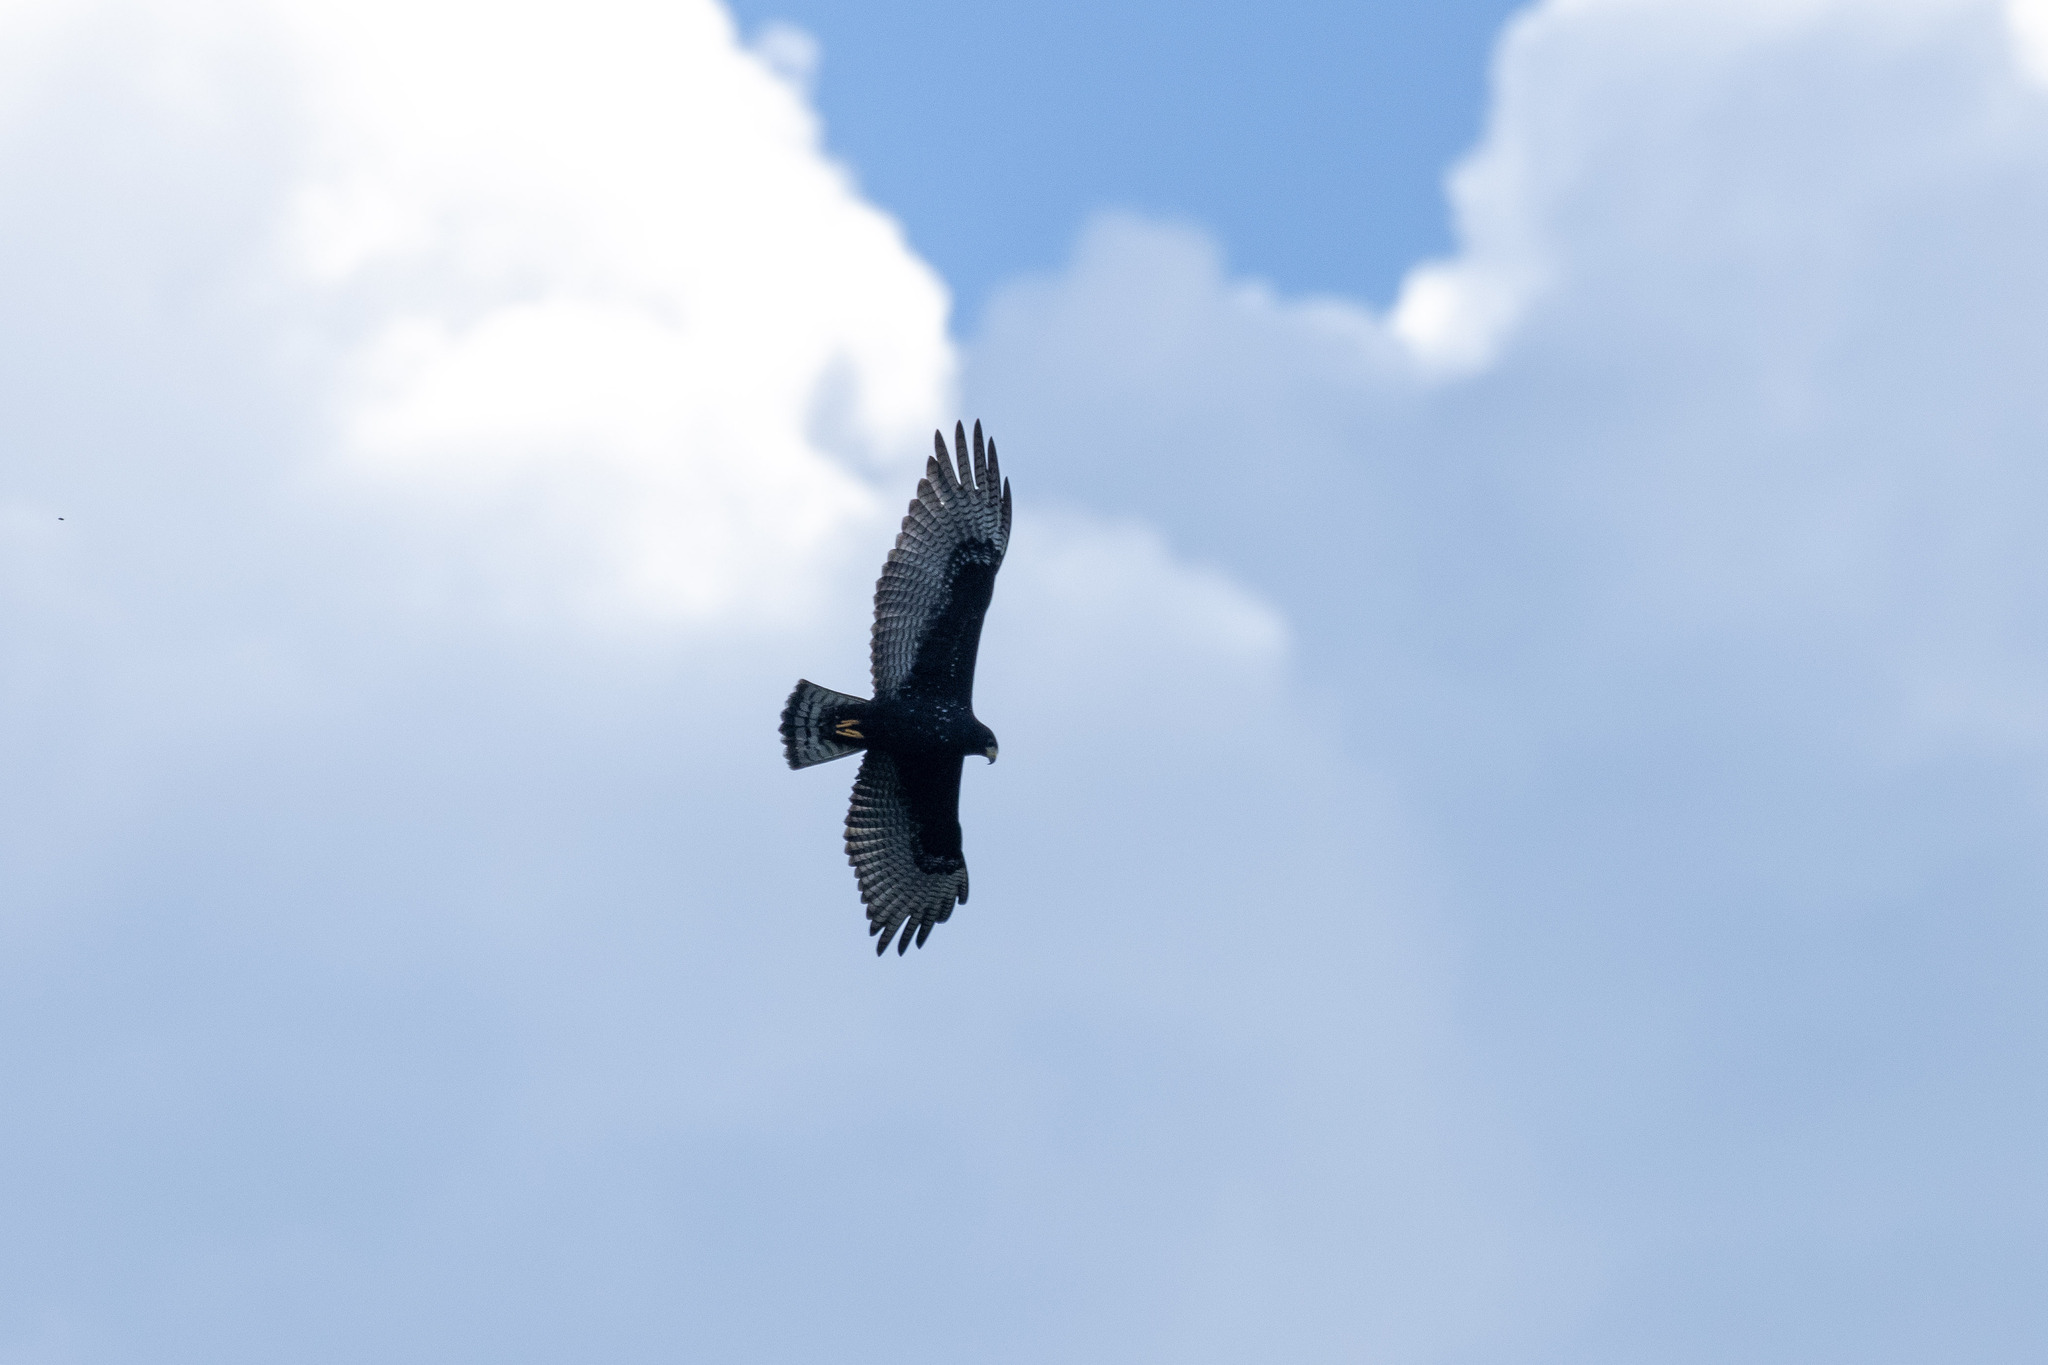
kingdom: Animalia
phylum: Chordata
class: Aves
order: Accipitriformes
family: Accipitridae
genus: Buteo
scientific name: Buteo albonotatus
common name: Zone-tailed hawk
